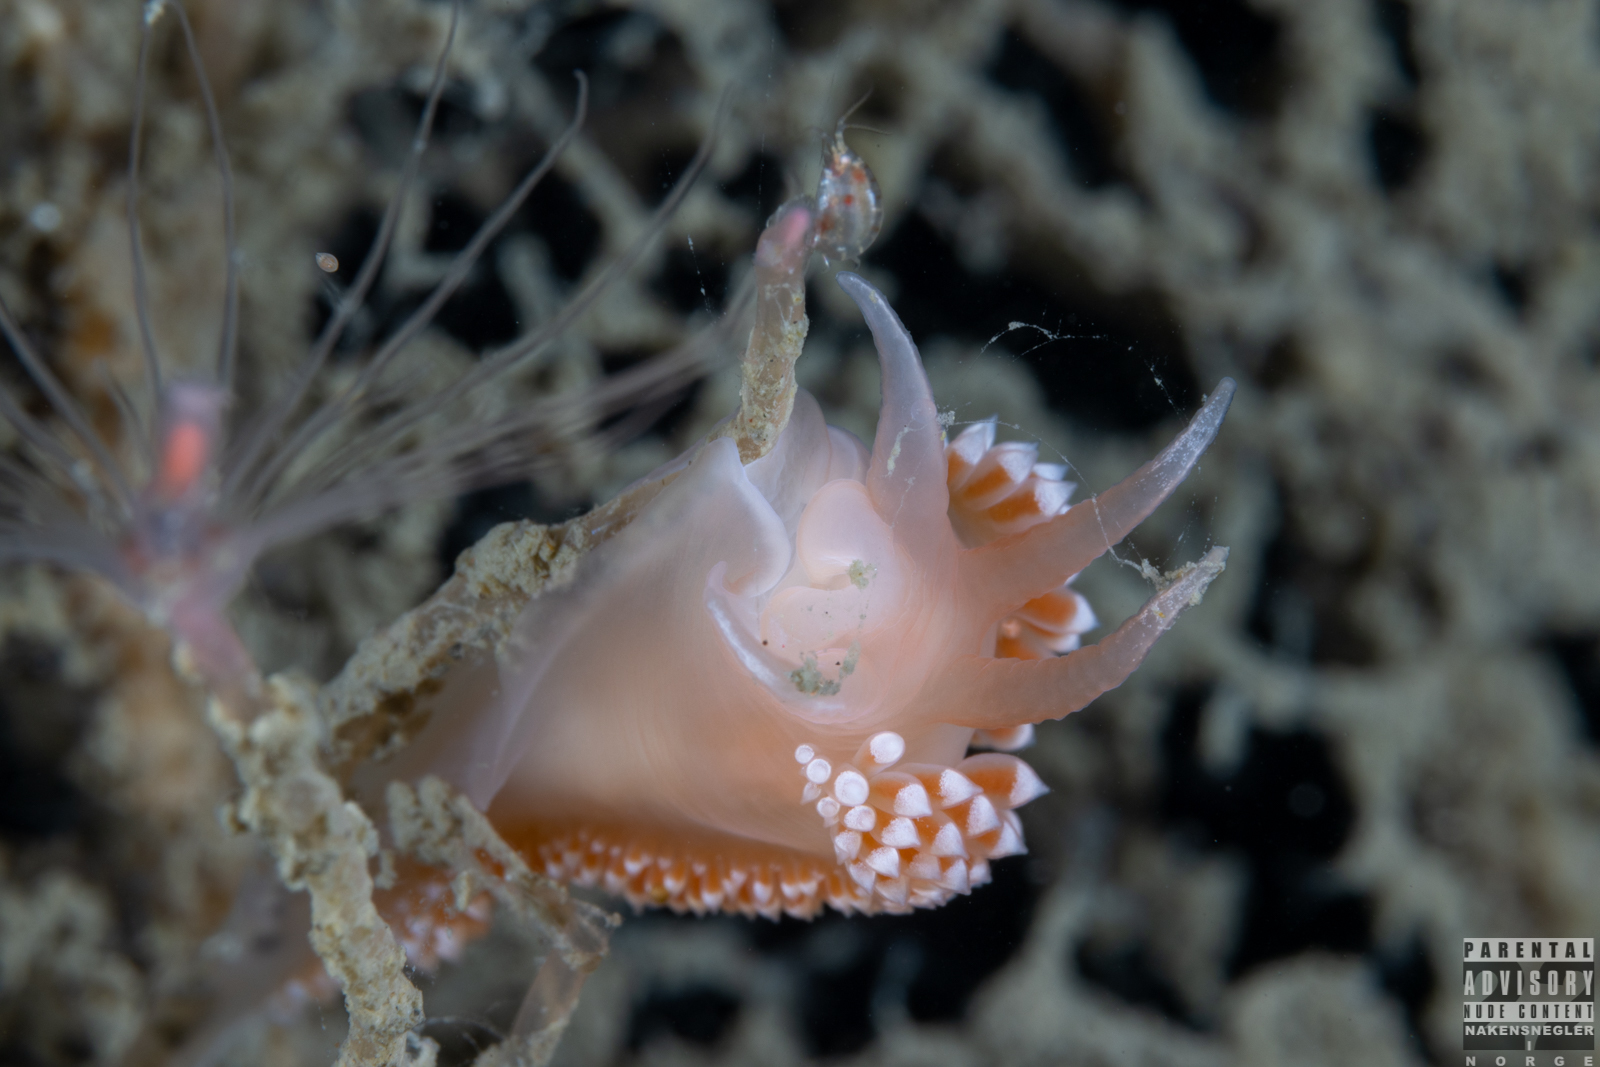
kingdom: Animalia
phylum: Mollusca
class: Gastropoda
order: Nudibranchia
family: Coryphellidae
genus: Coryphella
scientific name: Coryphella verrucosa
